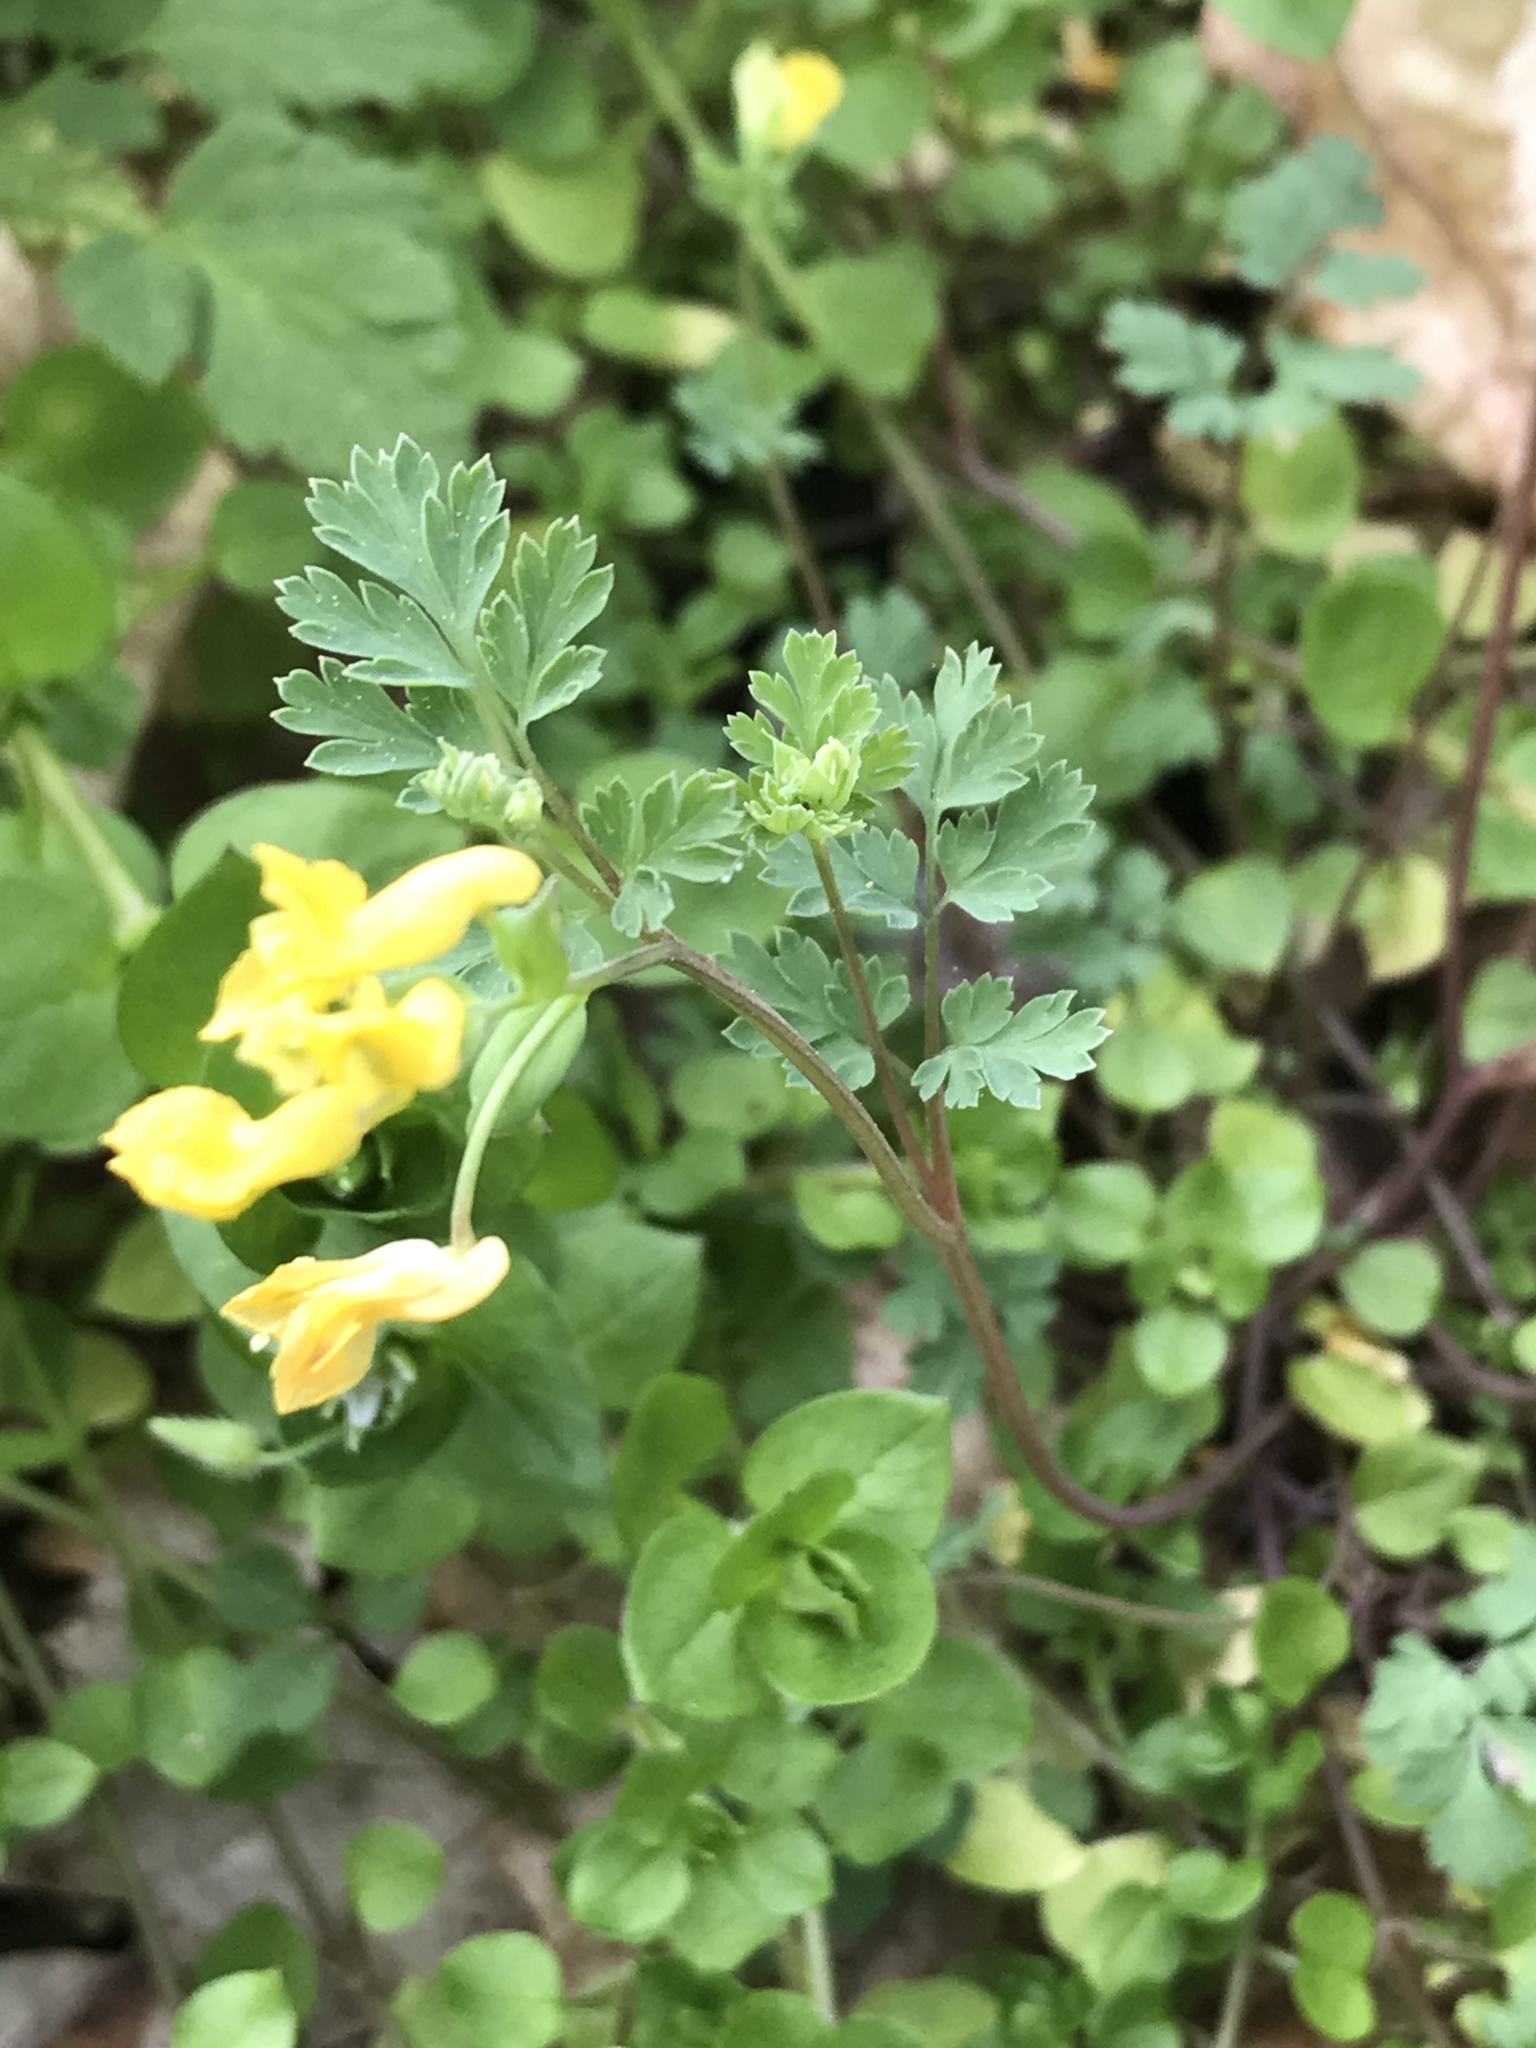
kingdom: Plantae
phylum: Tracheophyta
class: Magnoliopsida
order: Ranunculales
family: Papaveraceae
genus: Corydalis
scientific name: Corydalis flavula
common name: Yellow corydalis
